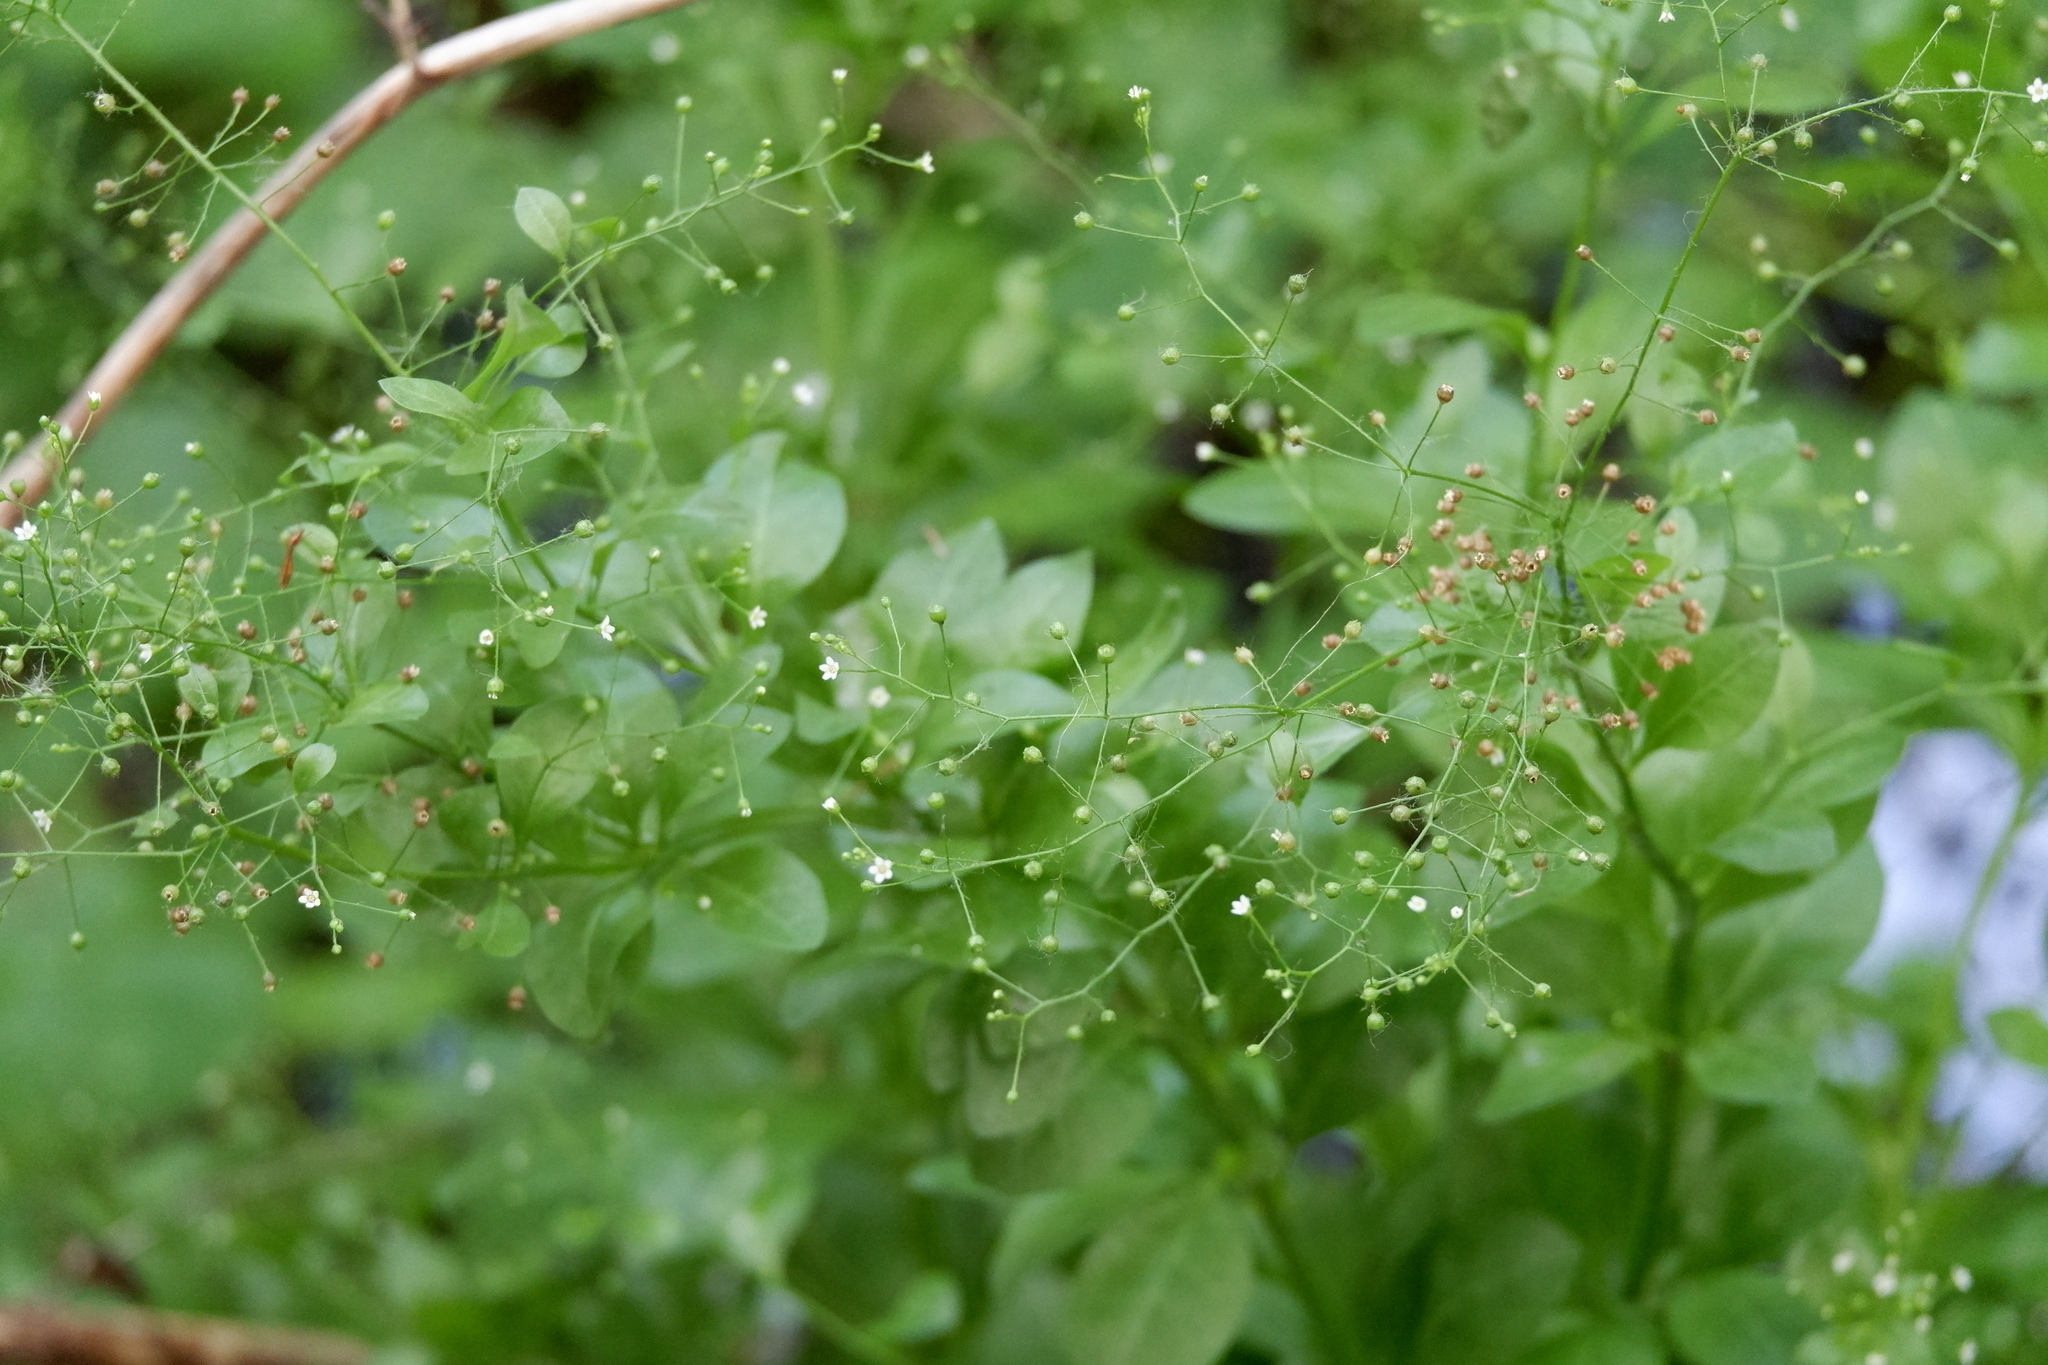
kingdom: Plantae
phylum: Tracheophyta
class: Magnoliopsida
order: Ericales
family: Primulaceae
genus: Samolus
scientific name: Samolus parviflorus
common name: False water pimpernel
